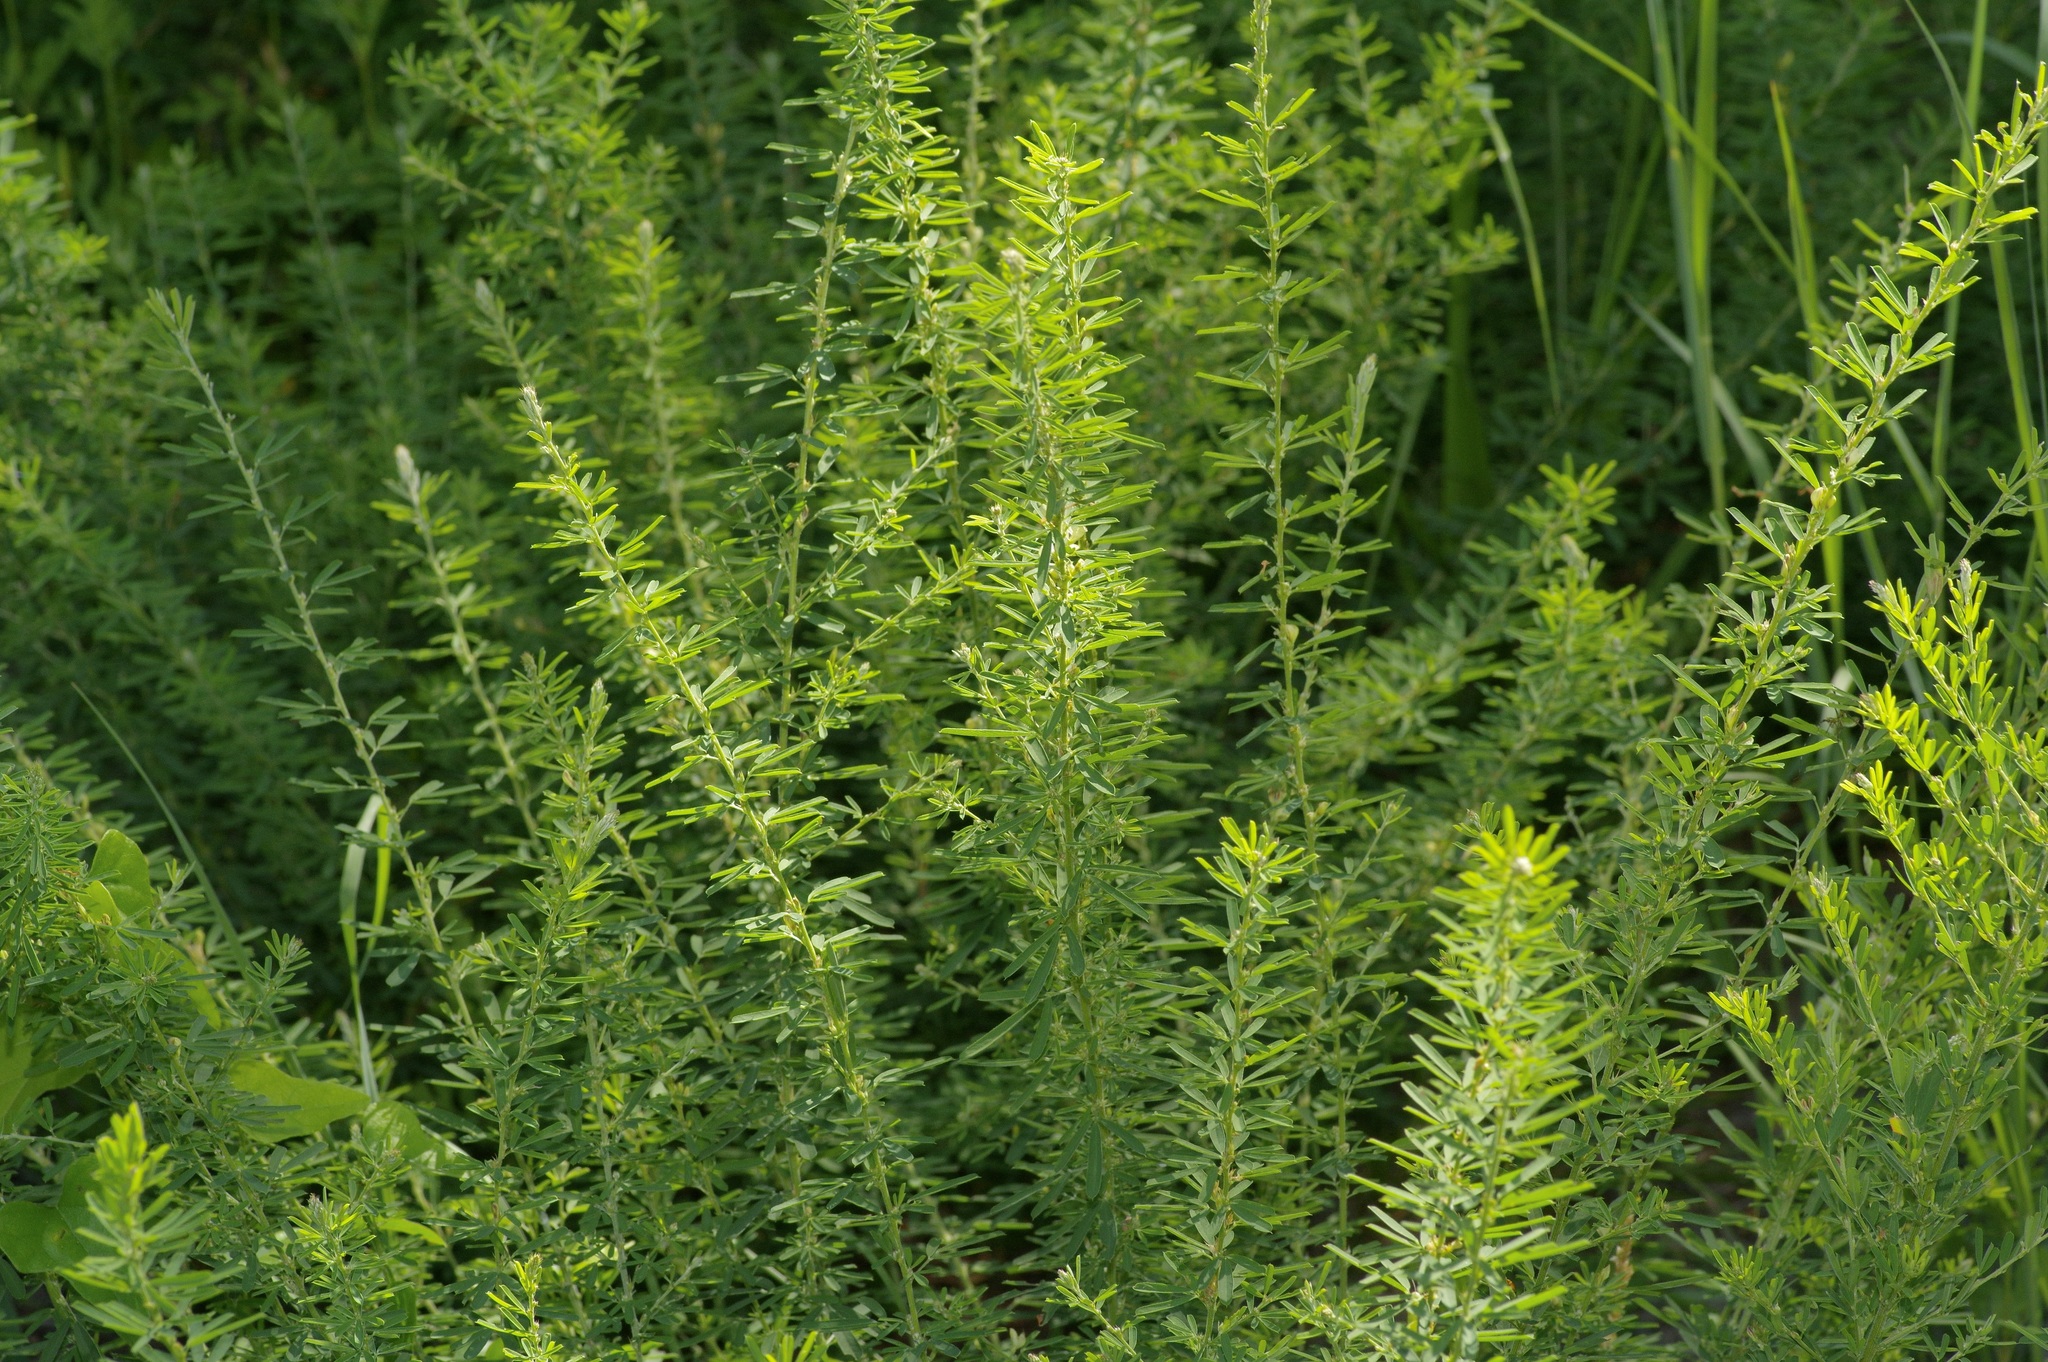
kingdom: Plantae
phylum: Tracheophyta
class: Magnoliopsida
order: Fabales
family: Fabaceae
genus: Lespedeza
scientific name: Lespedeza cuneata
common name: Chinese bush-clover
